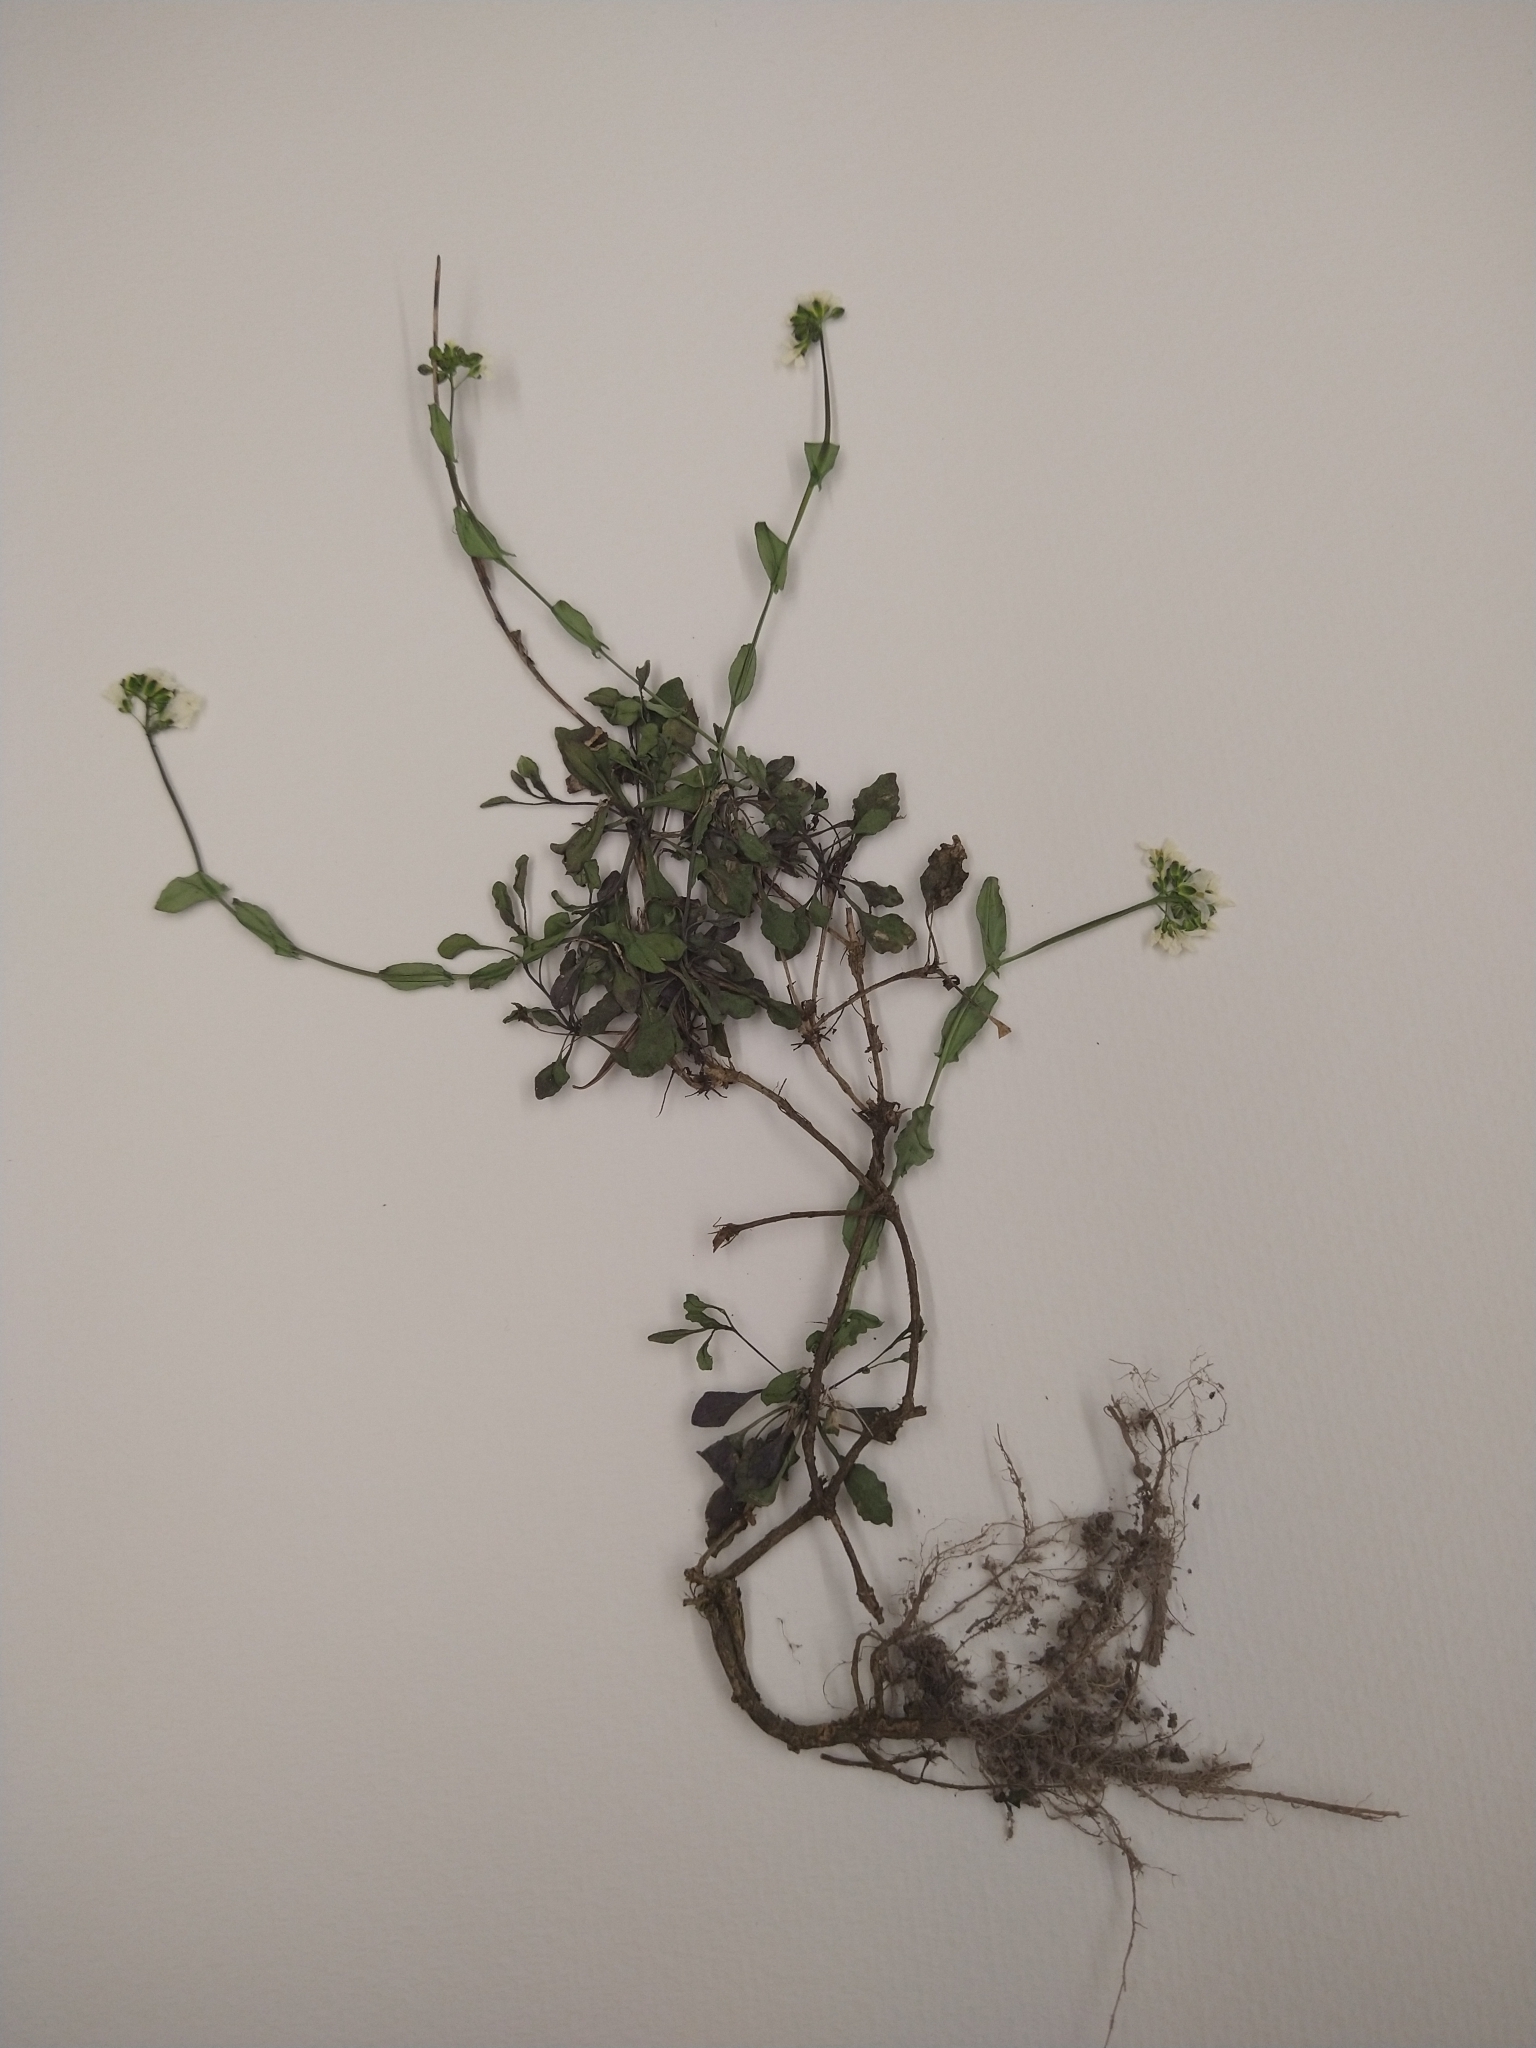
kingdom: Plantae
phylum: Tracheophyta
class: Magnoliopsida
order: Brassicales
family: Brassicaceae
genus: Noccaea
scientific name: Noccaea fendleri
